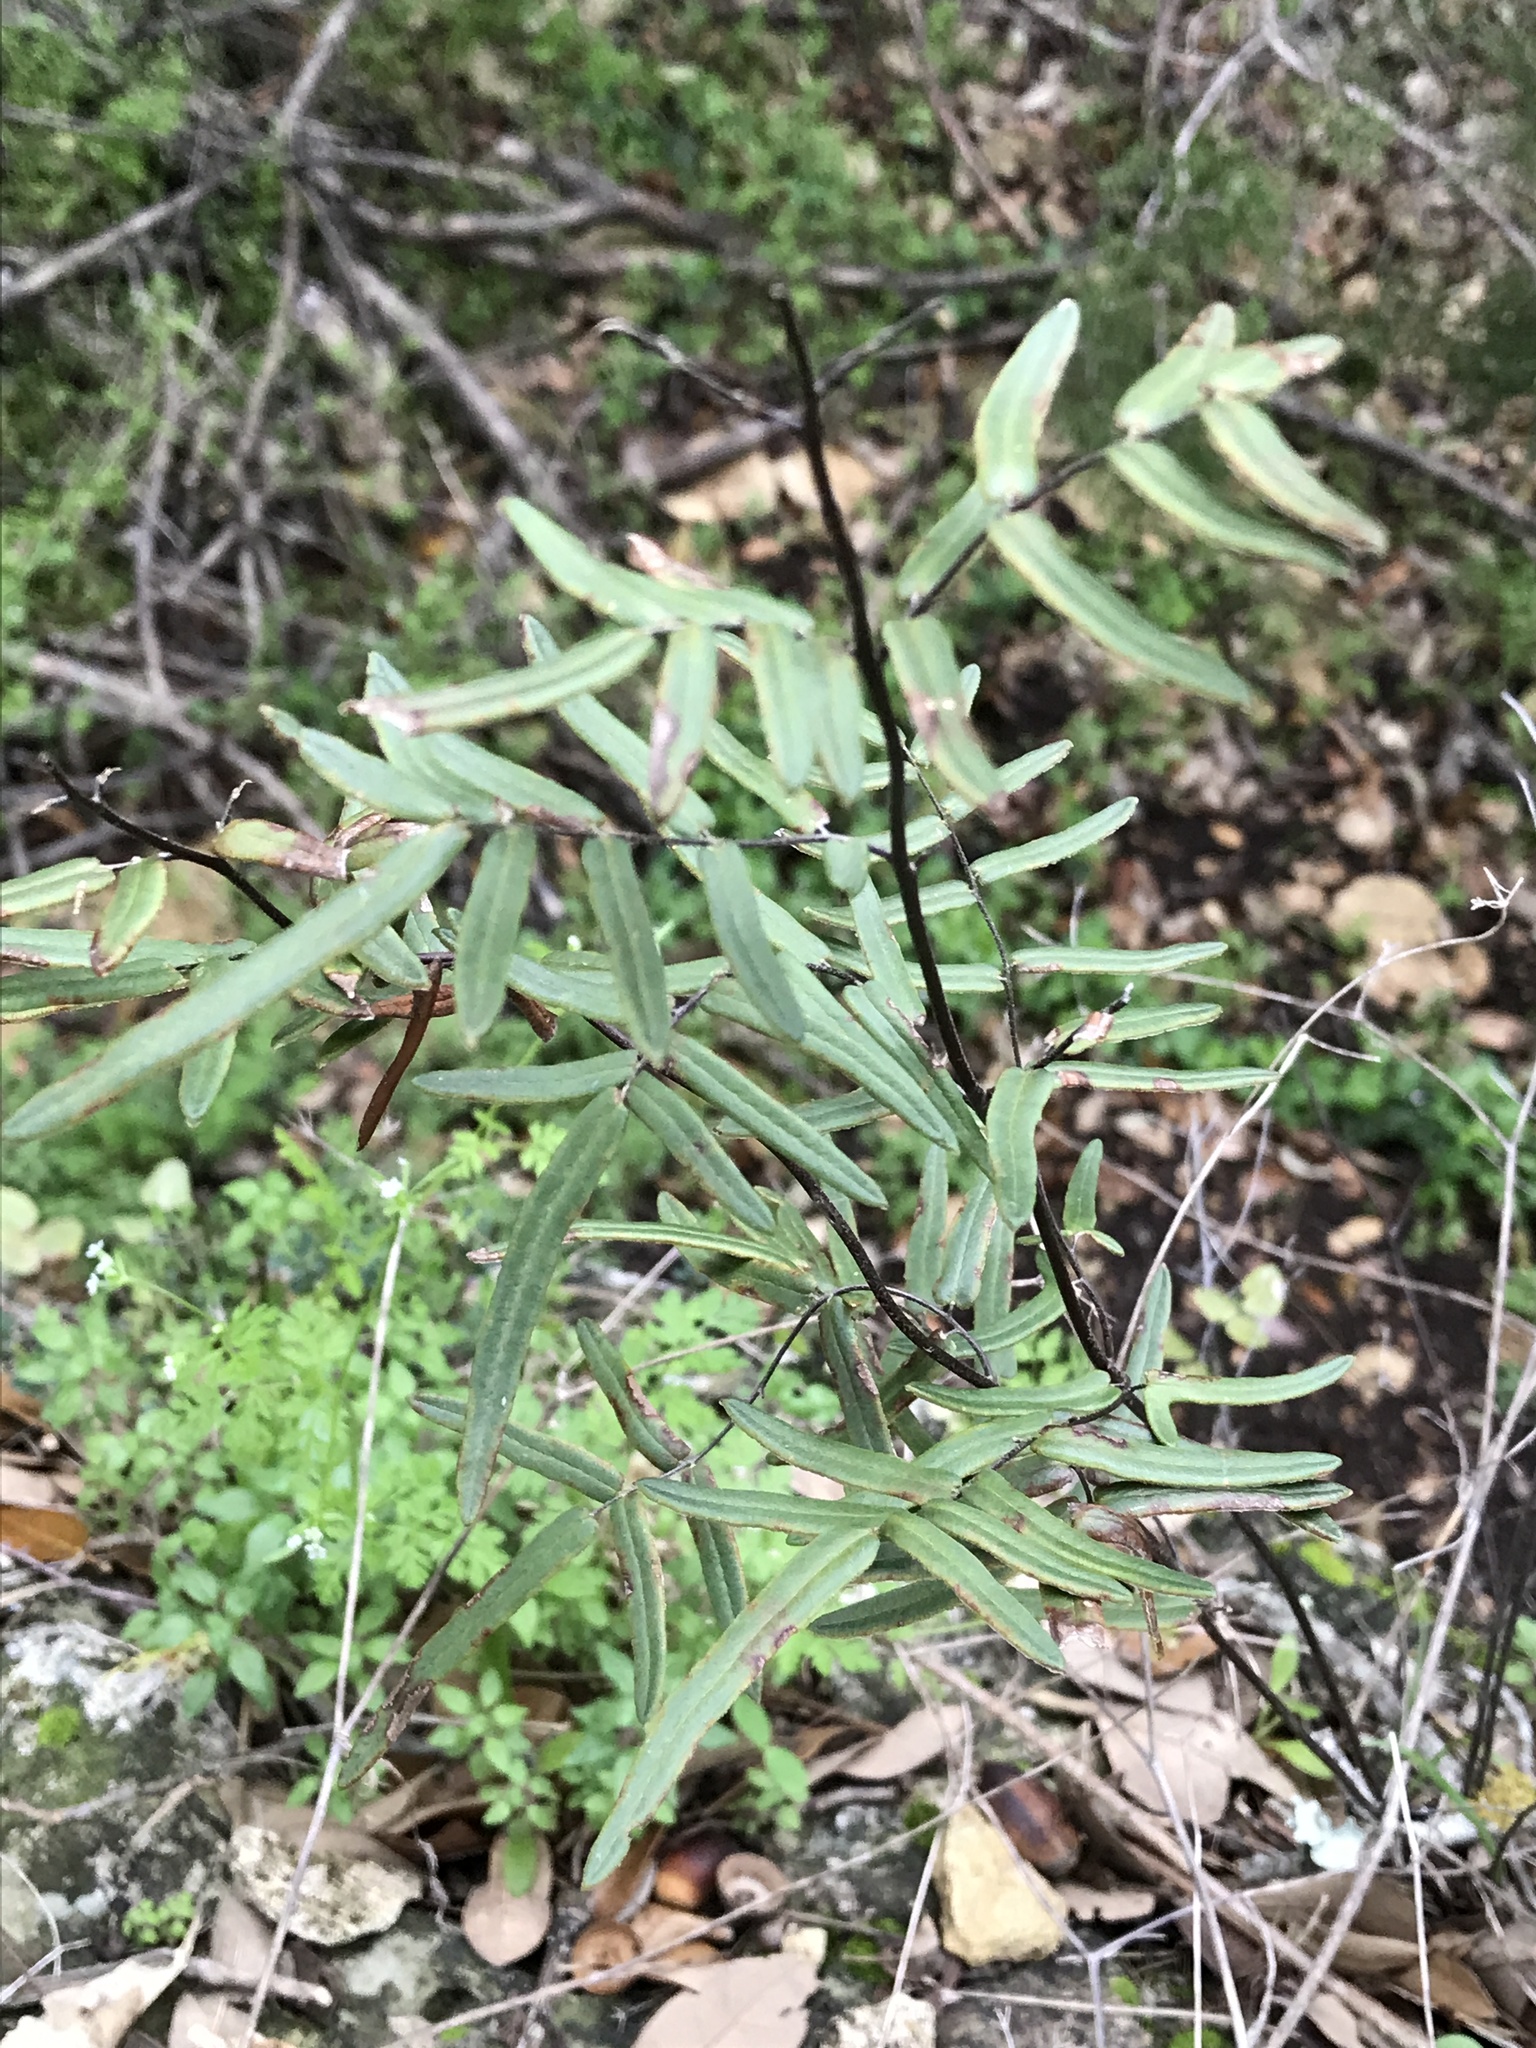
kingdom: Plantae
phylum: Tracheophyta
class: Polypodiopsida
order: Polypodiales
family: Pteridaceae
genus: Pellaea
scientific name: Pellaea atropurpurea
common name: Hairy cliffbrake
